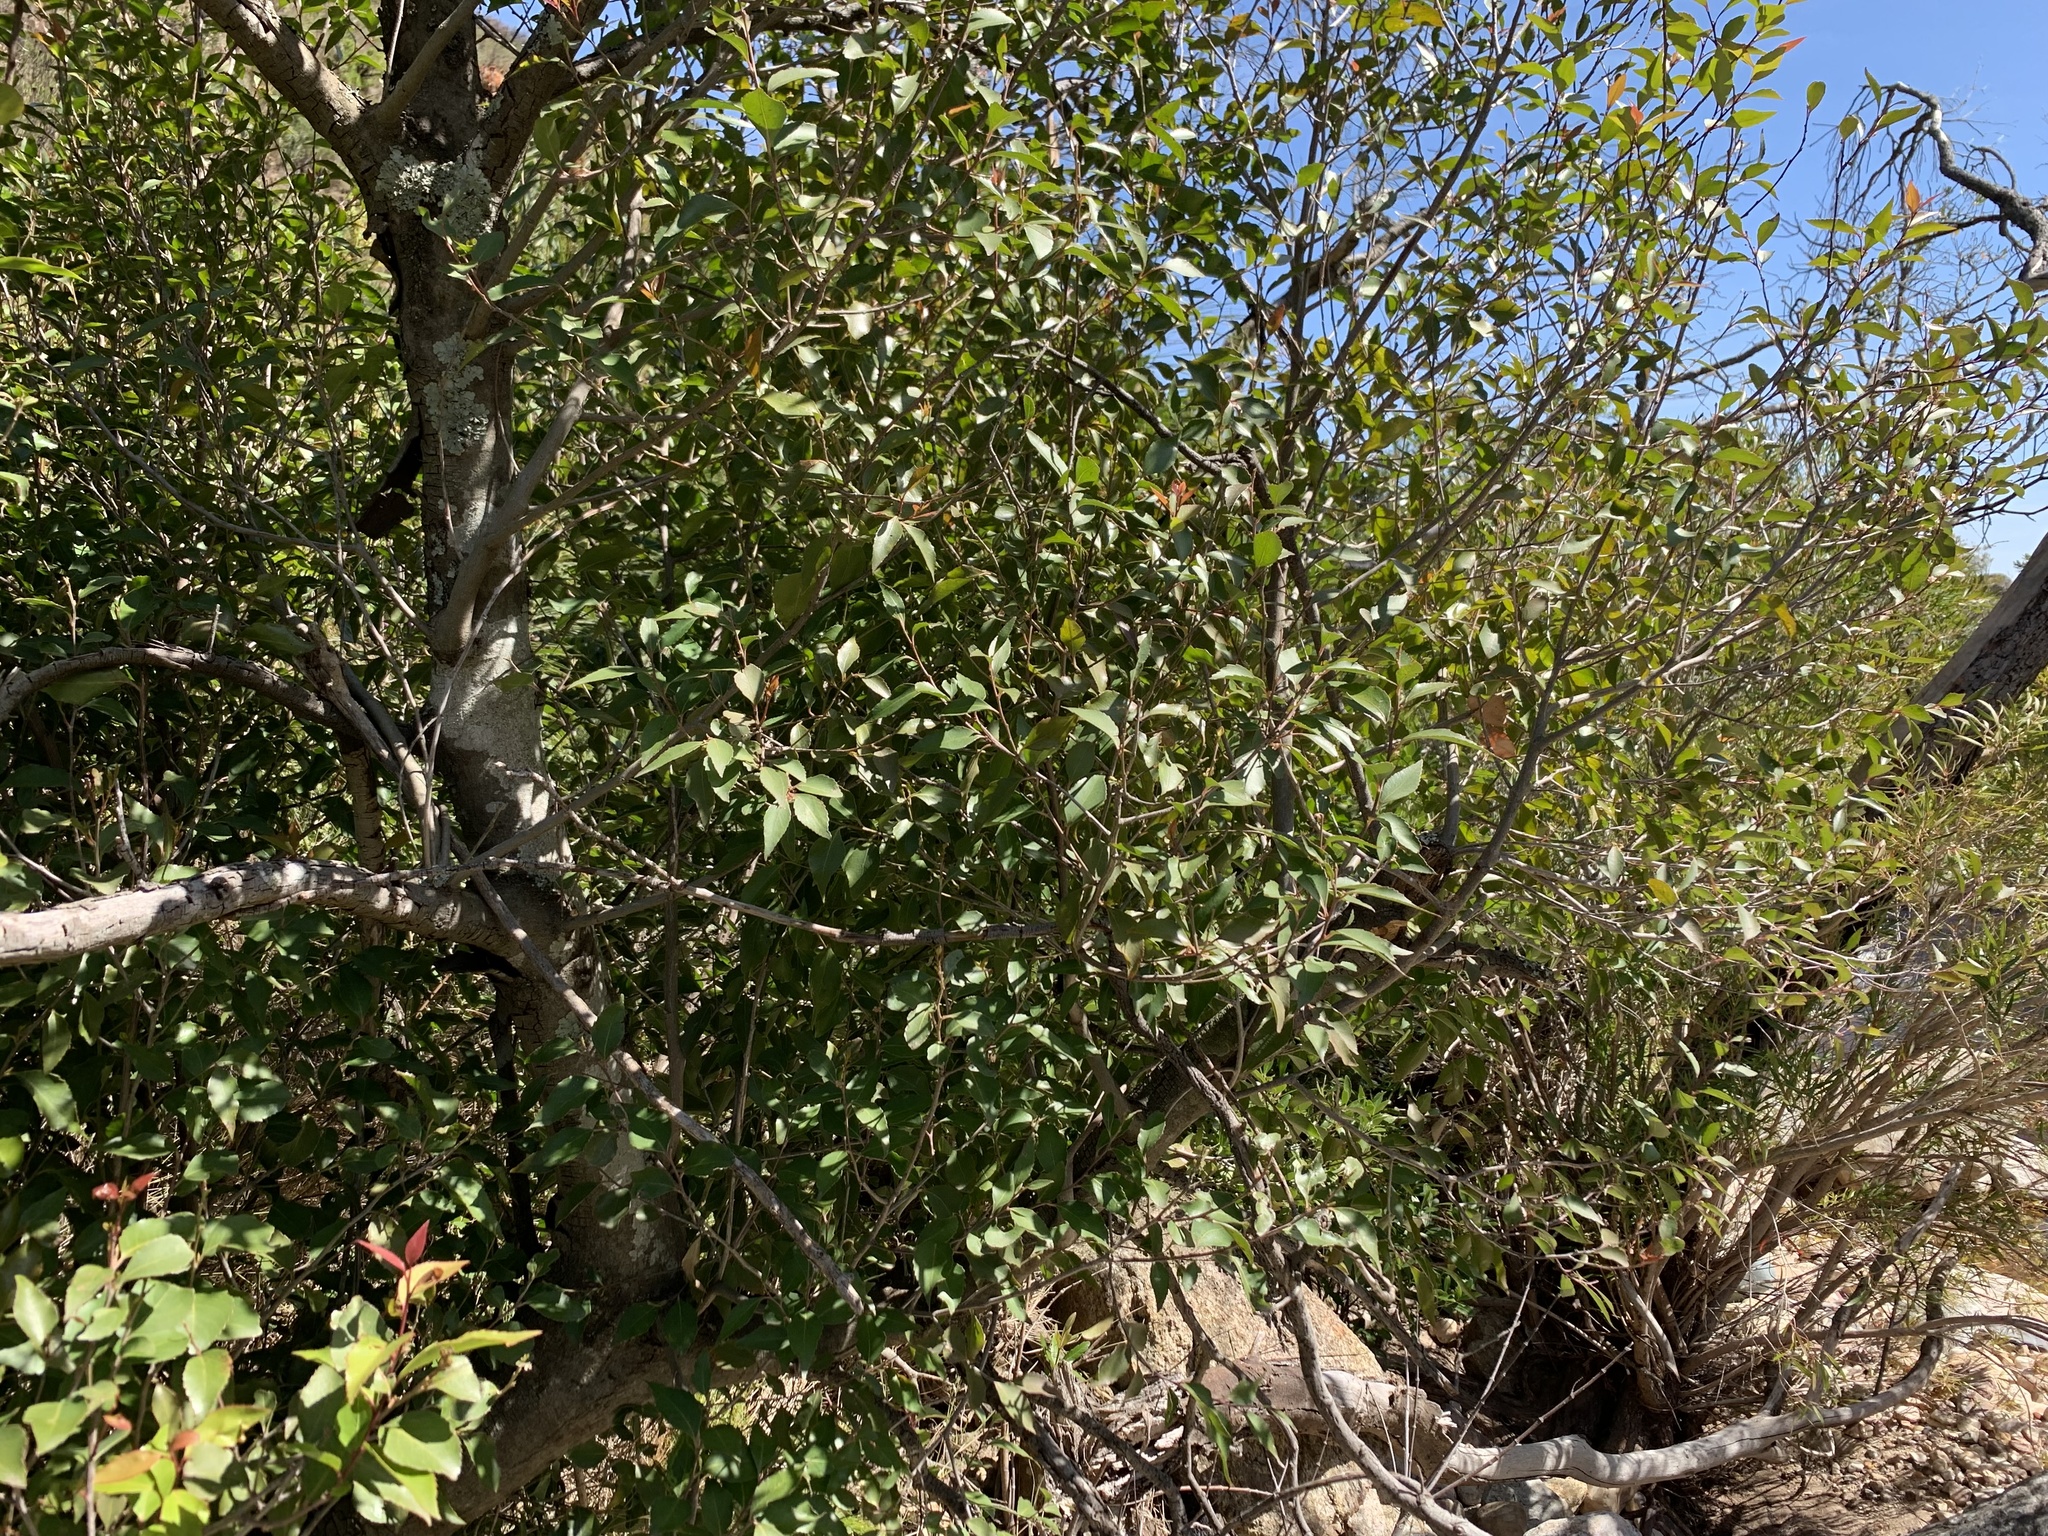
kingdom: Plantae
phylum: Tracheophyta
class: Magnoliopsida
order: Celastrales
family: Celastraceae
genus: Gymnosporia
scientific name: Gymnosporia acuminata
